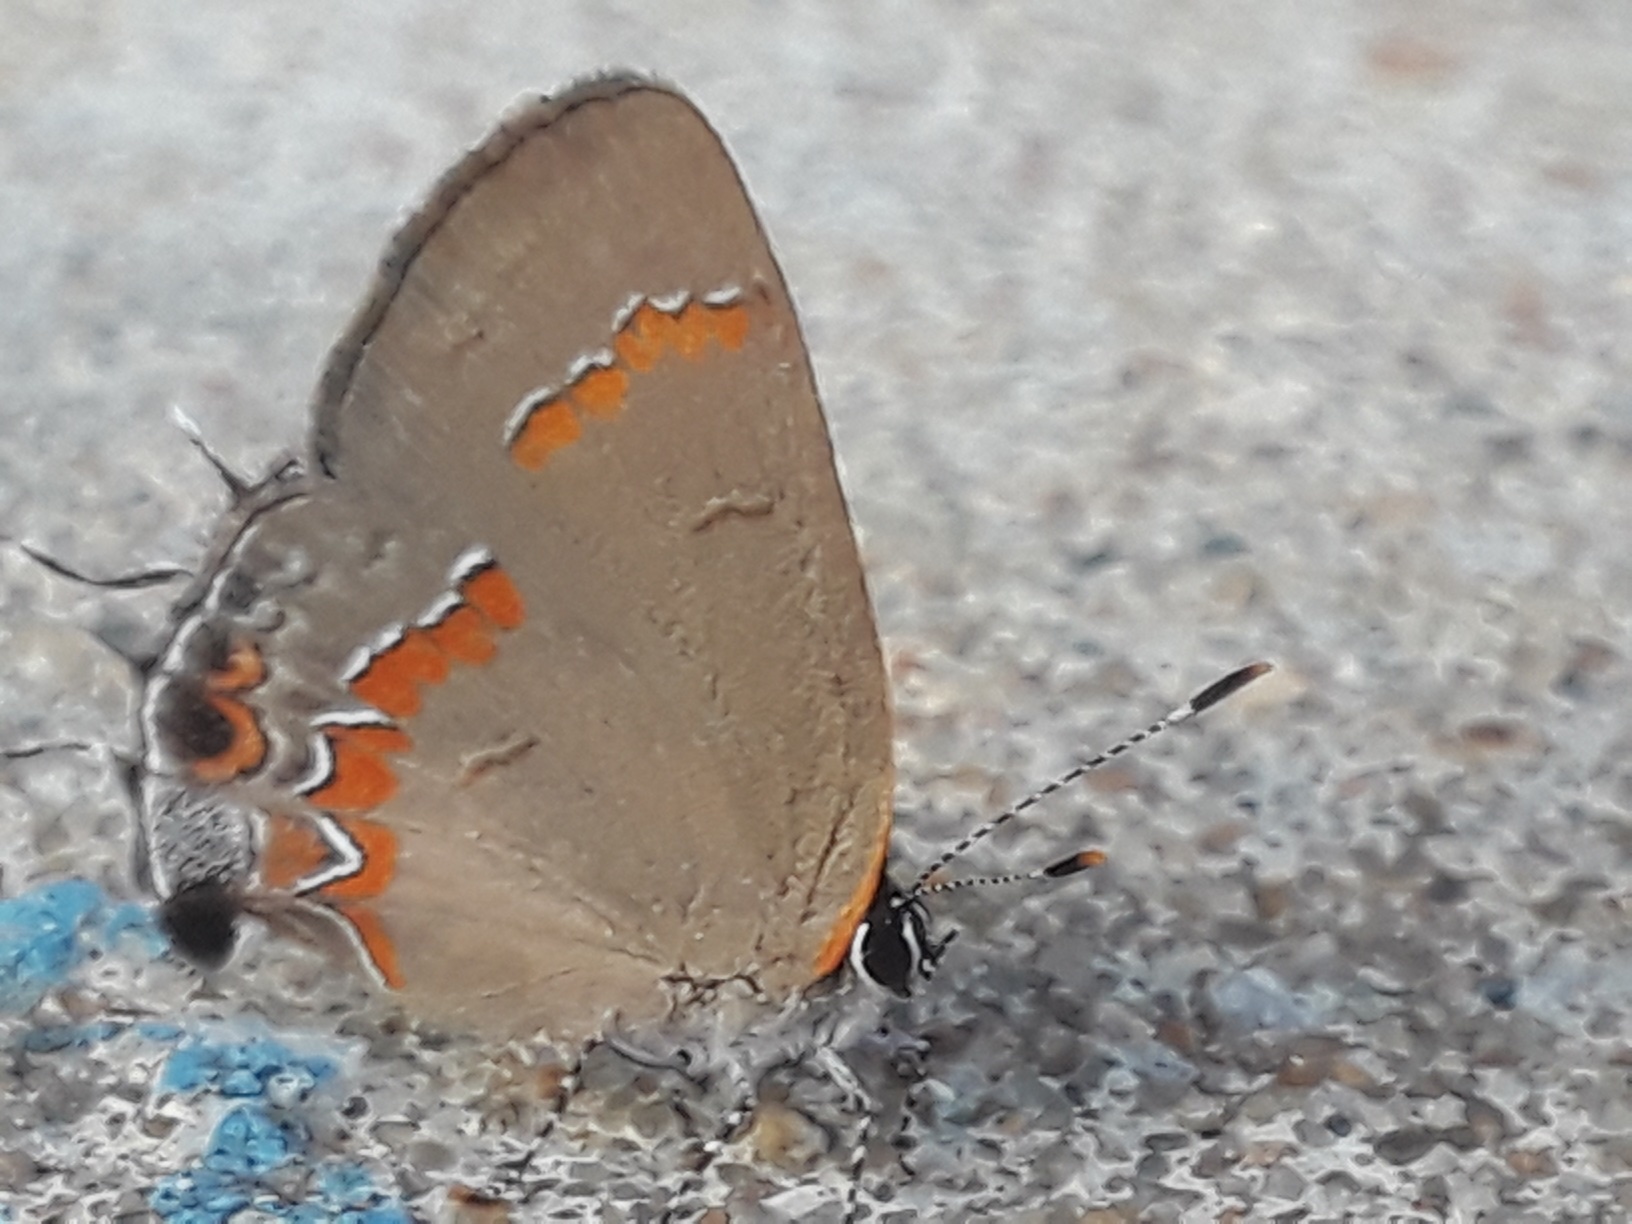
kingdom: Animalia
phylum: Arthropoda
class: Insecta
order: Lepidoptera
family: Lycaenidae
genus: Calycopis
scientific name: Calycopis cecrops
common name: Red-banded hairstreak
